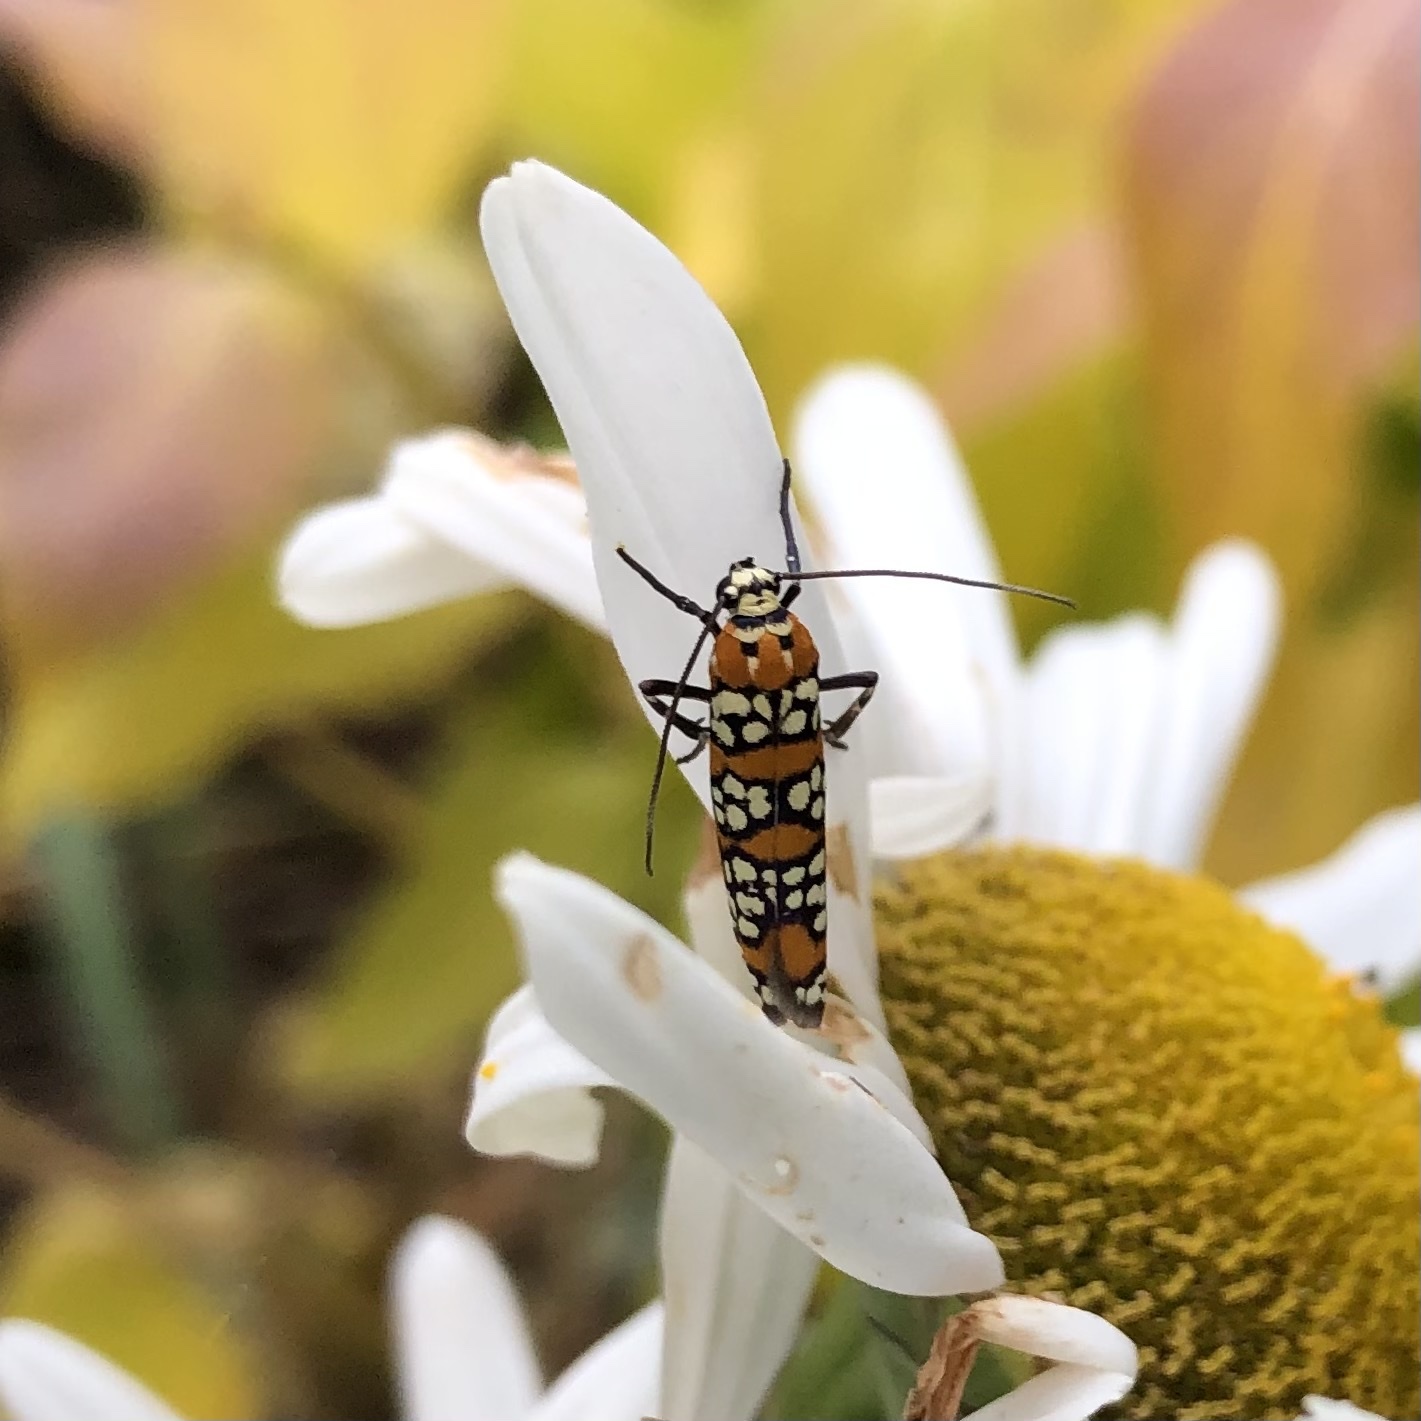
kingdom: Animalia
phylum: Arthropoda
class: Insecta
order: Lepidoptera
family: Attevidae
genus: Atteva
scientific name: Atteva punctella
